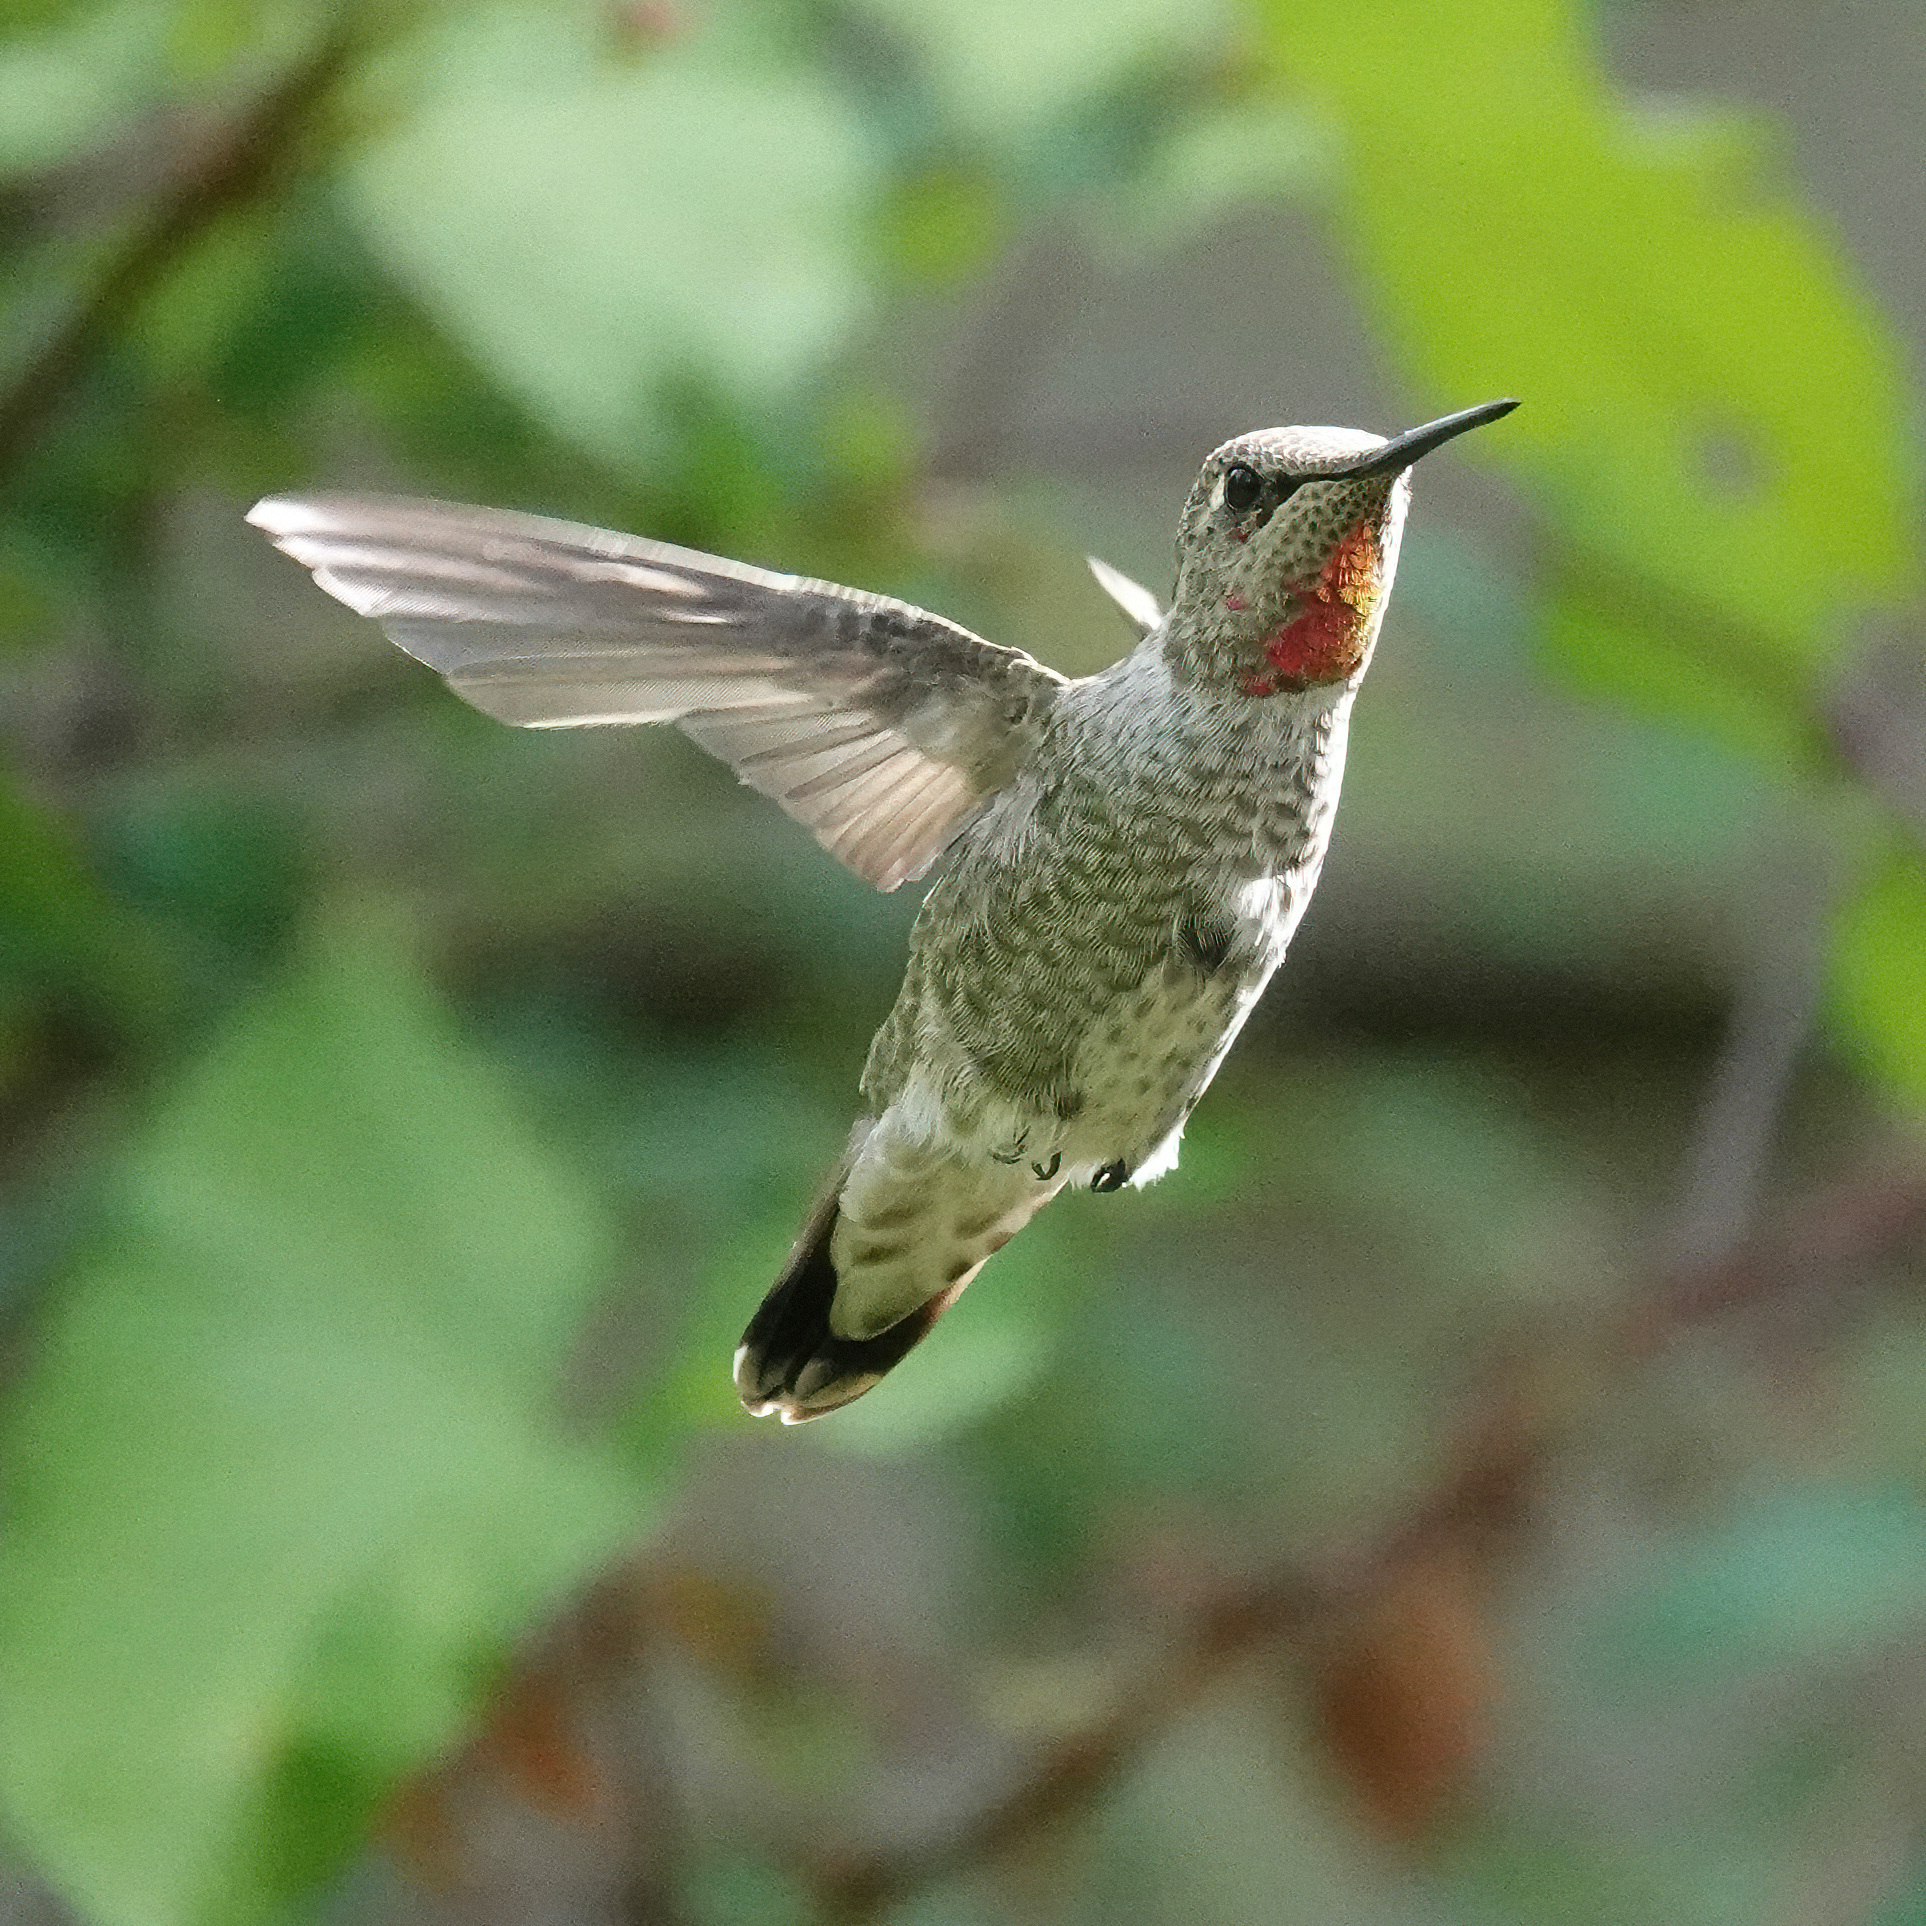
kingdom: Animalia
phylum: Chordata
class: Aves
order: Apodiformes
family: Trochilidae
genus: Calypte
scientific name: Calypte anna
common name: Anna's hummingbird
